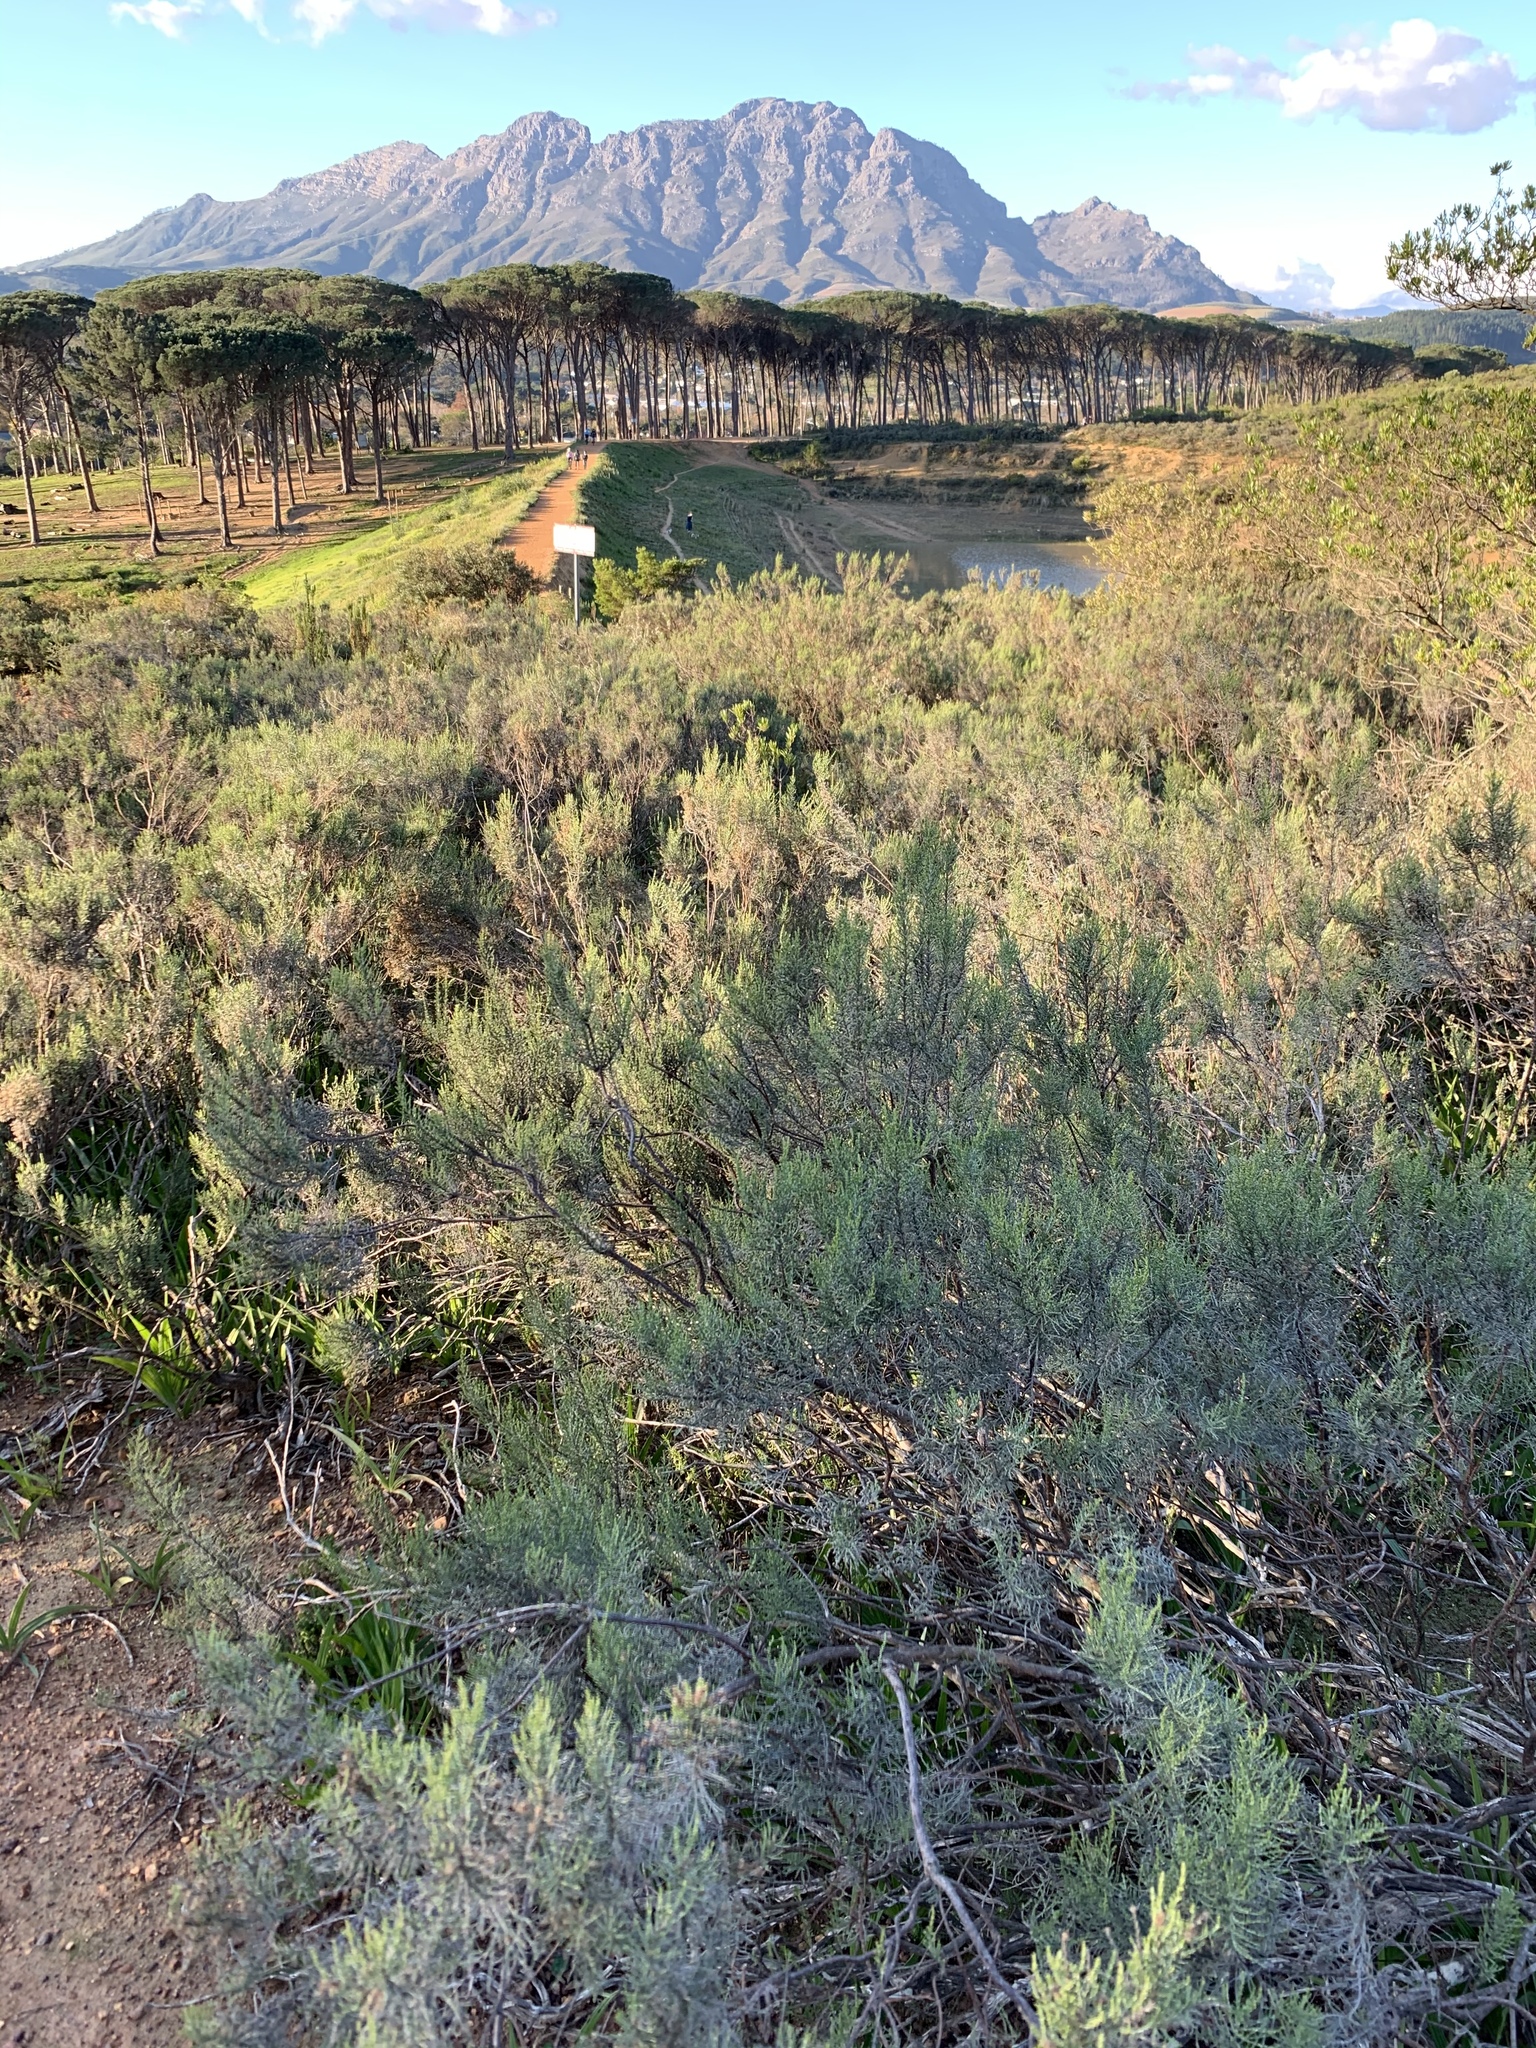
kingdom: Plantae
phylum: Tracheophyta
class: Magnoliopsida
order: Asterales
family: Asteraceae
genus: Dicerothamnus
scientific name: Dicerothamnus rhinocerotis
